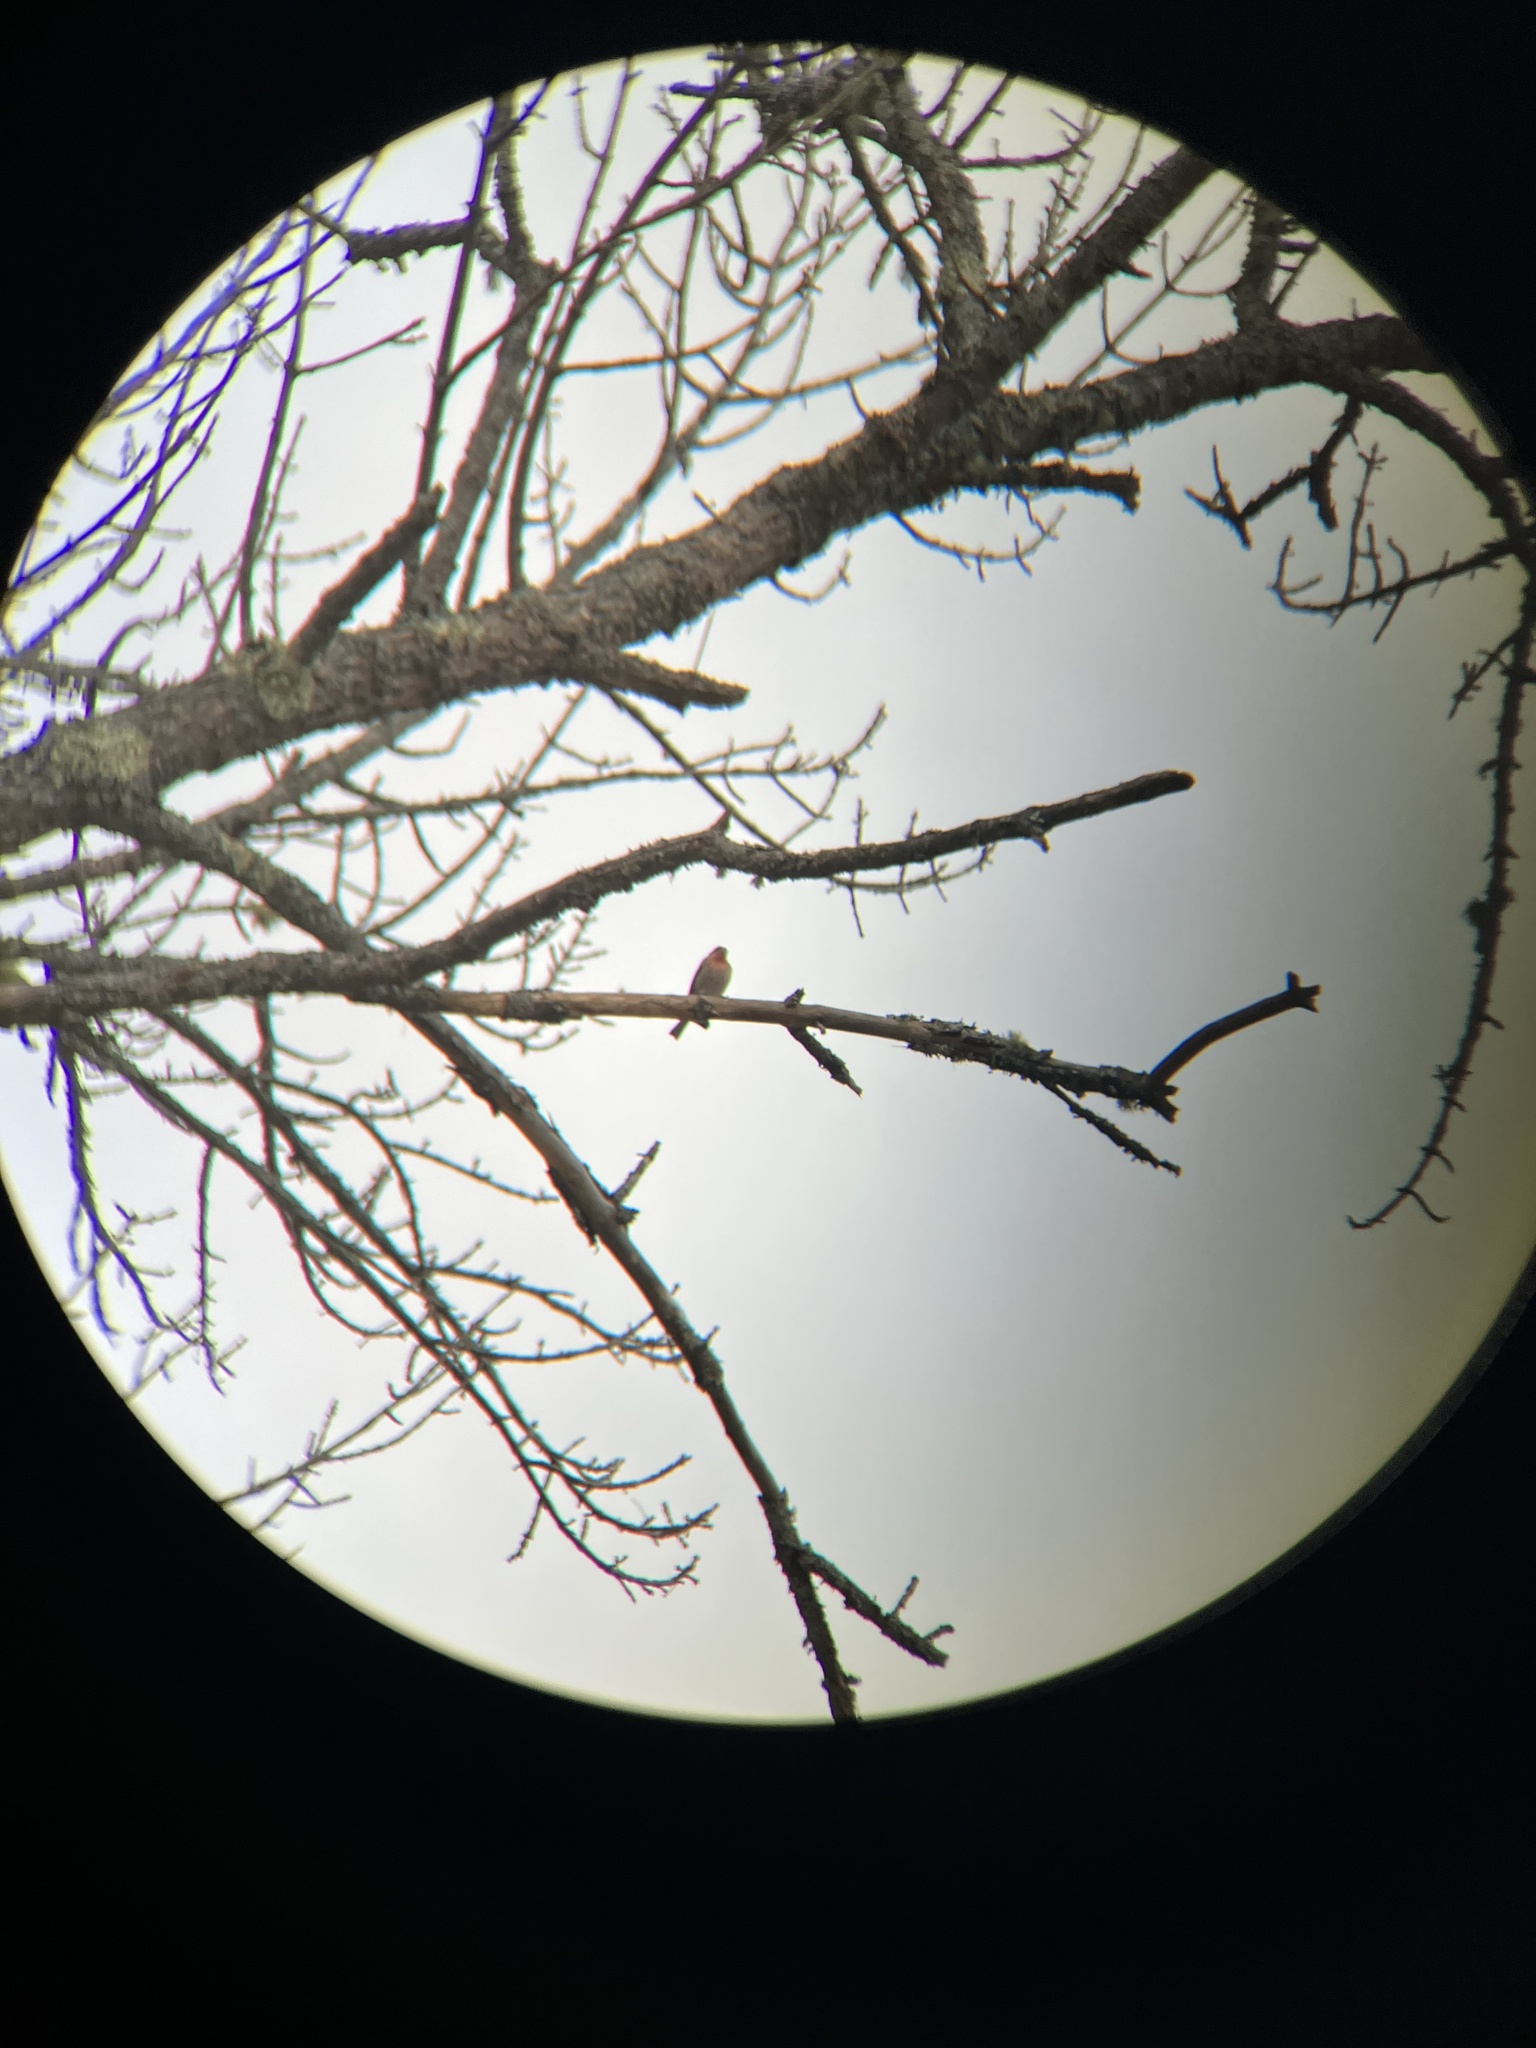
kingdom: Animalia
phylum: Chordata
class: Aves
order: Passeriformes
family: Fringillidae
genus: Haemorhous
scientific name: Haemorhous mexicanus
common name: House finch
